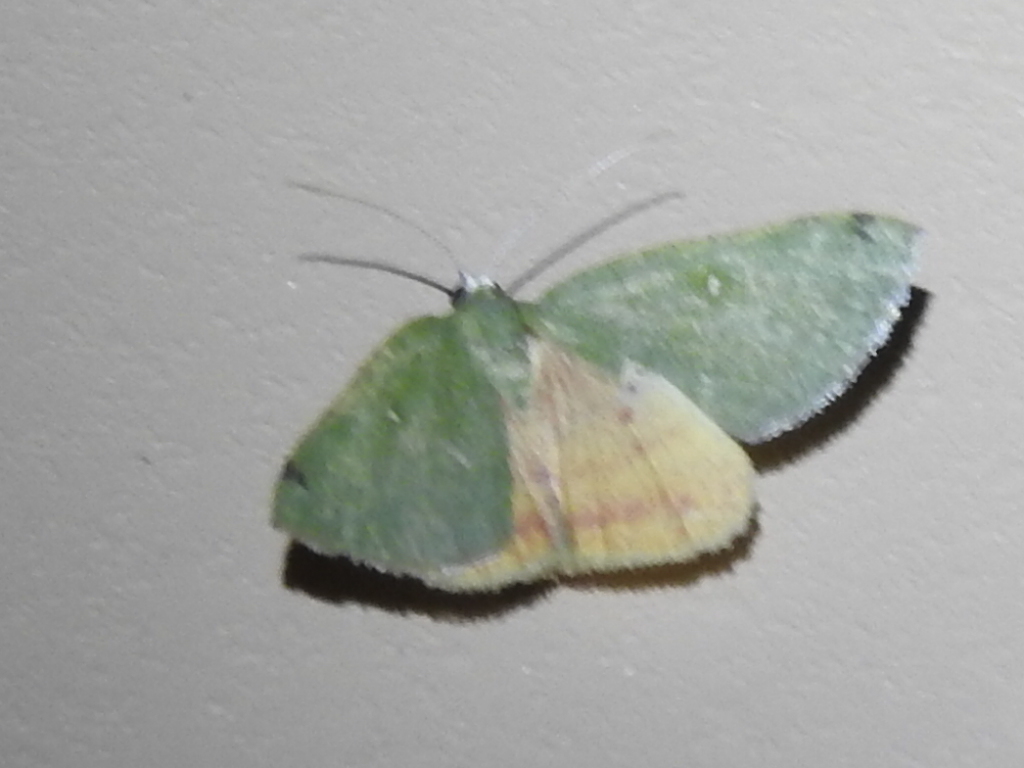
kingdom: Animalia
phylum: Arthropoda
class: Insecta
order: Lepidoptera
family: Geometridae
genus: Chloraspilates
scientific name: Chloraspilates bicoloraria
